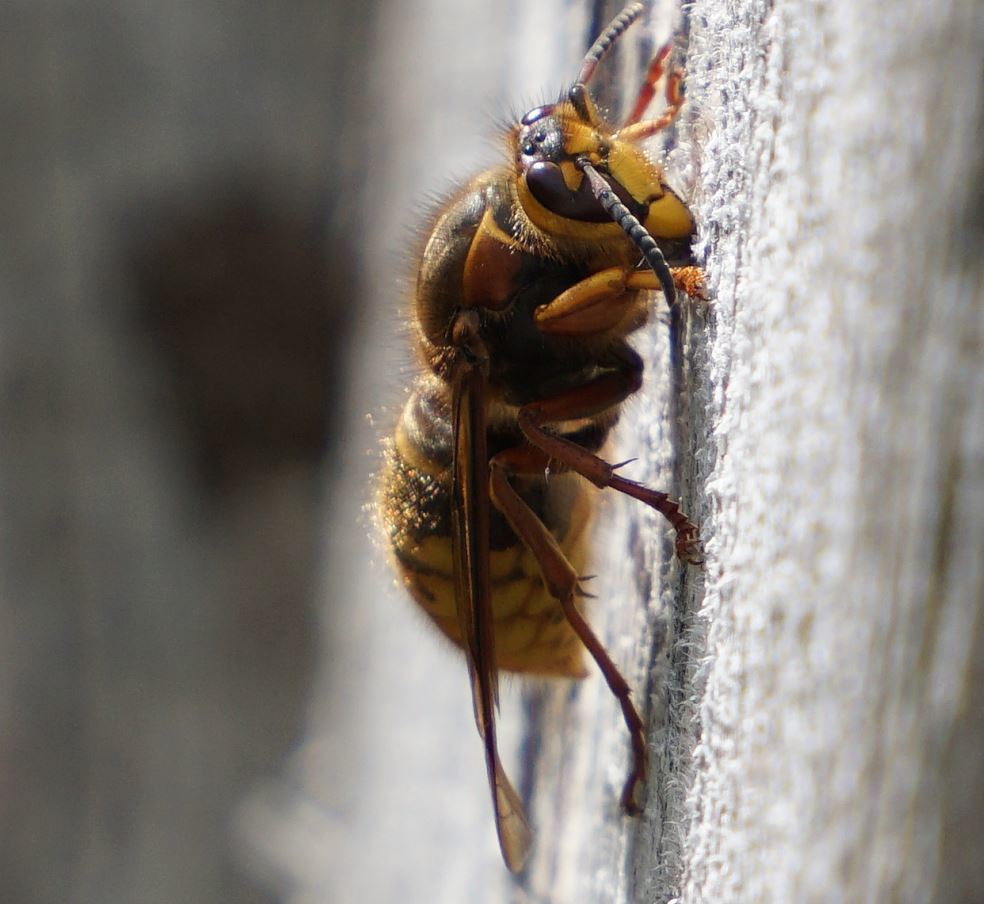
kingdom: Animalia
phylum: Arthropoda
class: Insecta
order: Hymenoptera
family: Vespidae
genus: Dolichovespula
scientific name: Dolichovespula media
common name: Median wasp
